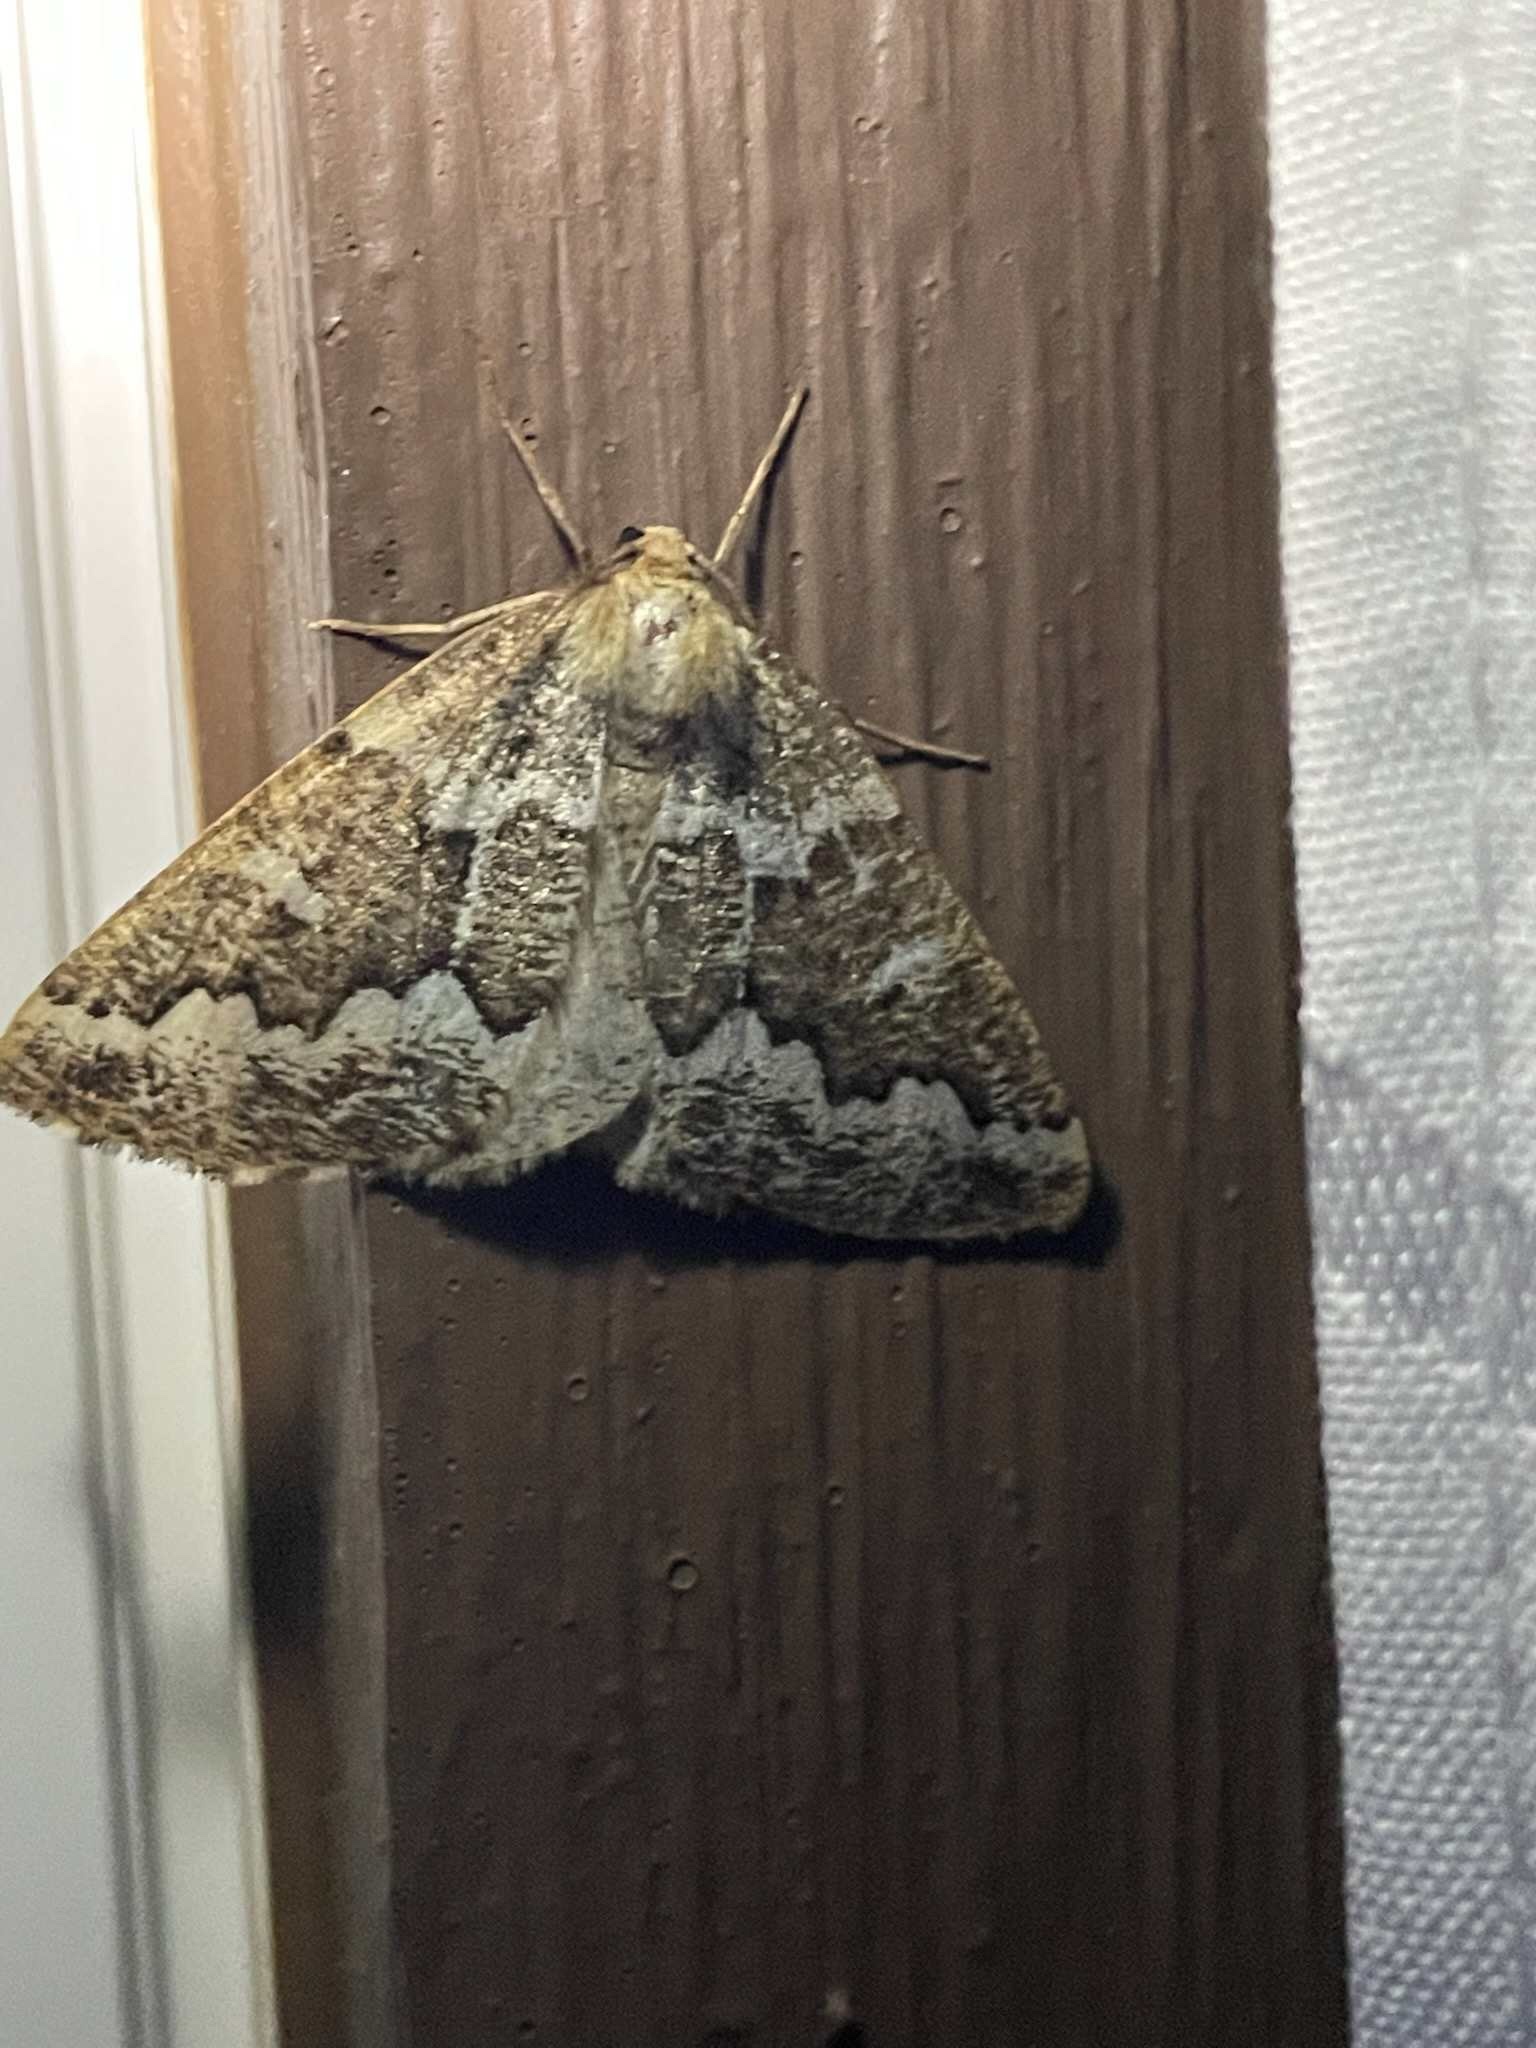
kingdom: Animalia
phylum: Arthropoda
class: Insecta
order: Lepidoptera
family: Geometridae
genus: Caripeta
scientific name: Caripeta divisata
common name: Gray spruce looper
